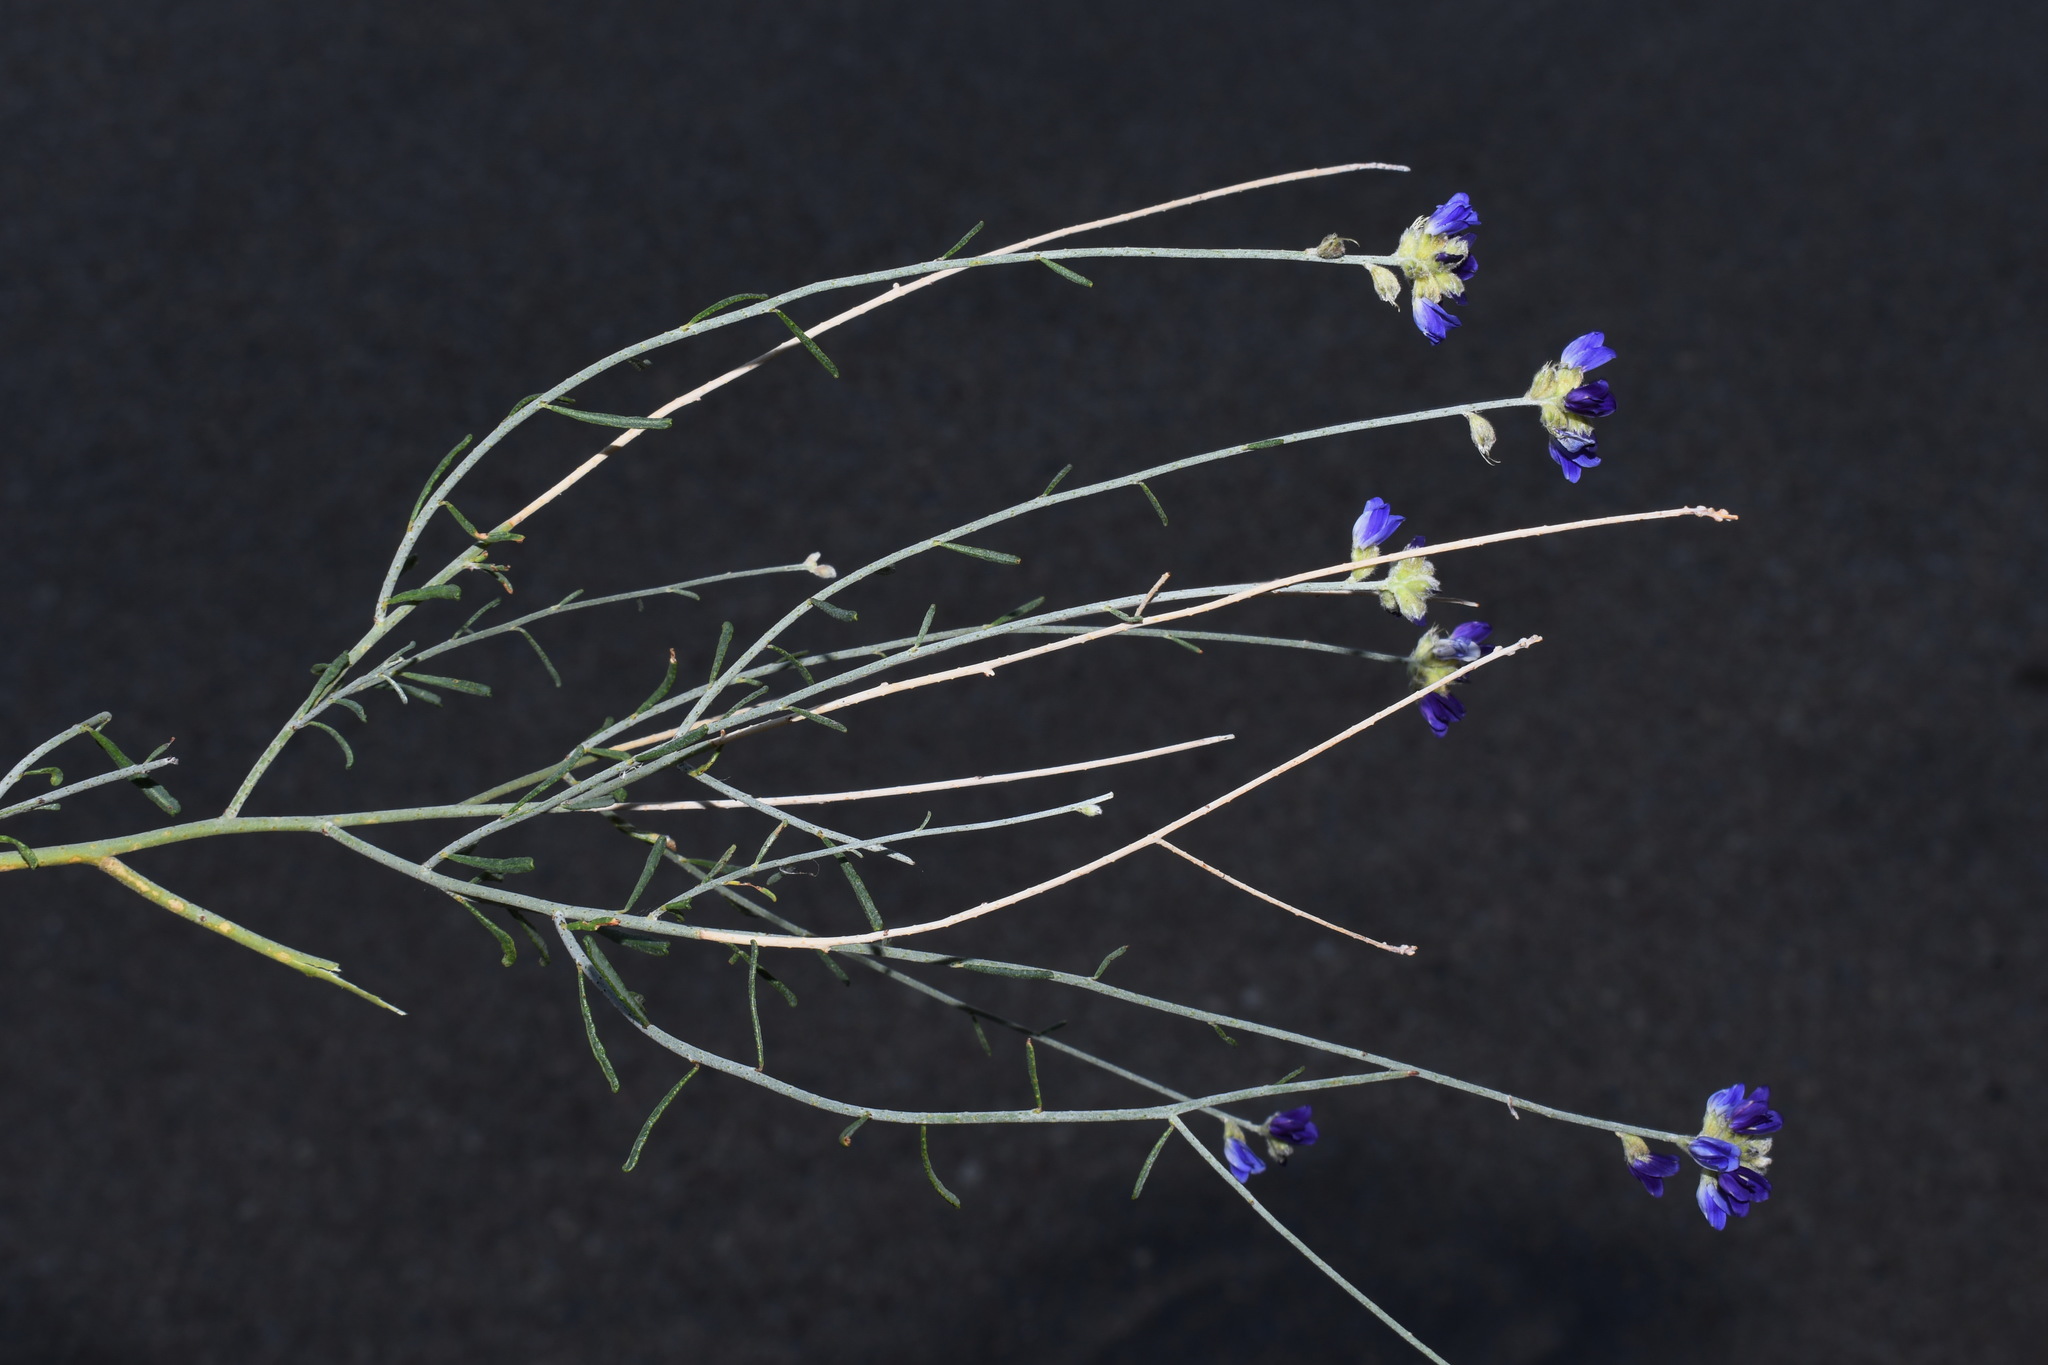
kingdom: Plantae
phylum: Tracheophyta
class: Magnoliopsida
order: Fabales
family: Fabaceae
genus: Psorothamnus
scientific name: Psorothamnus scoparius
